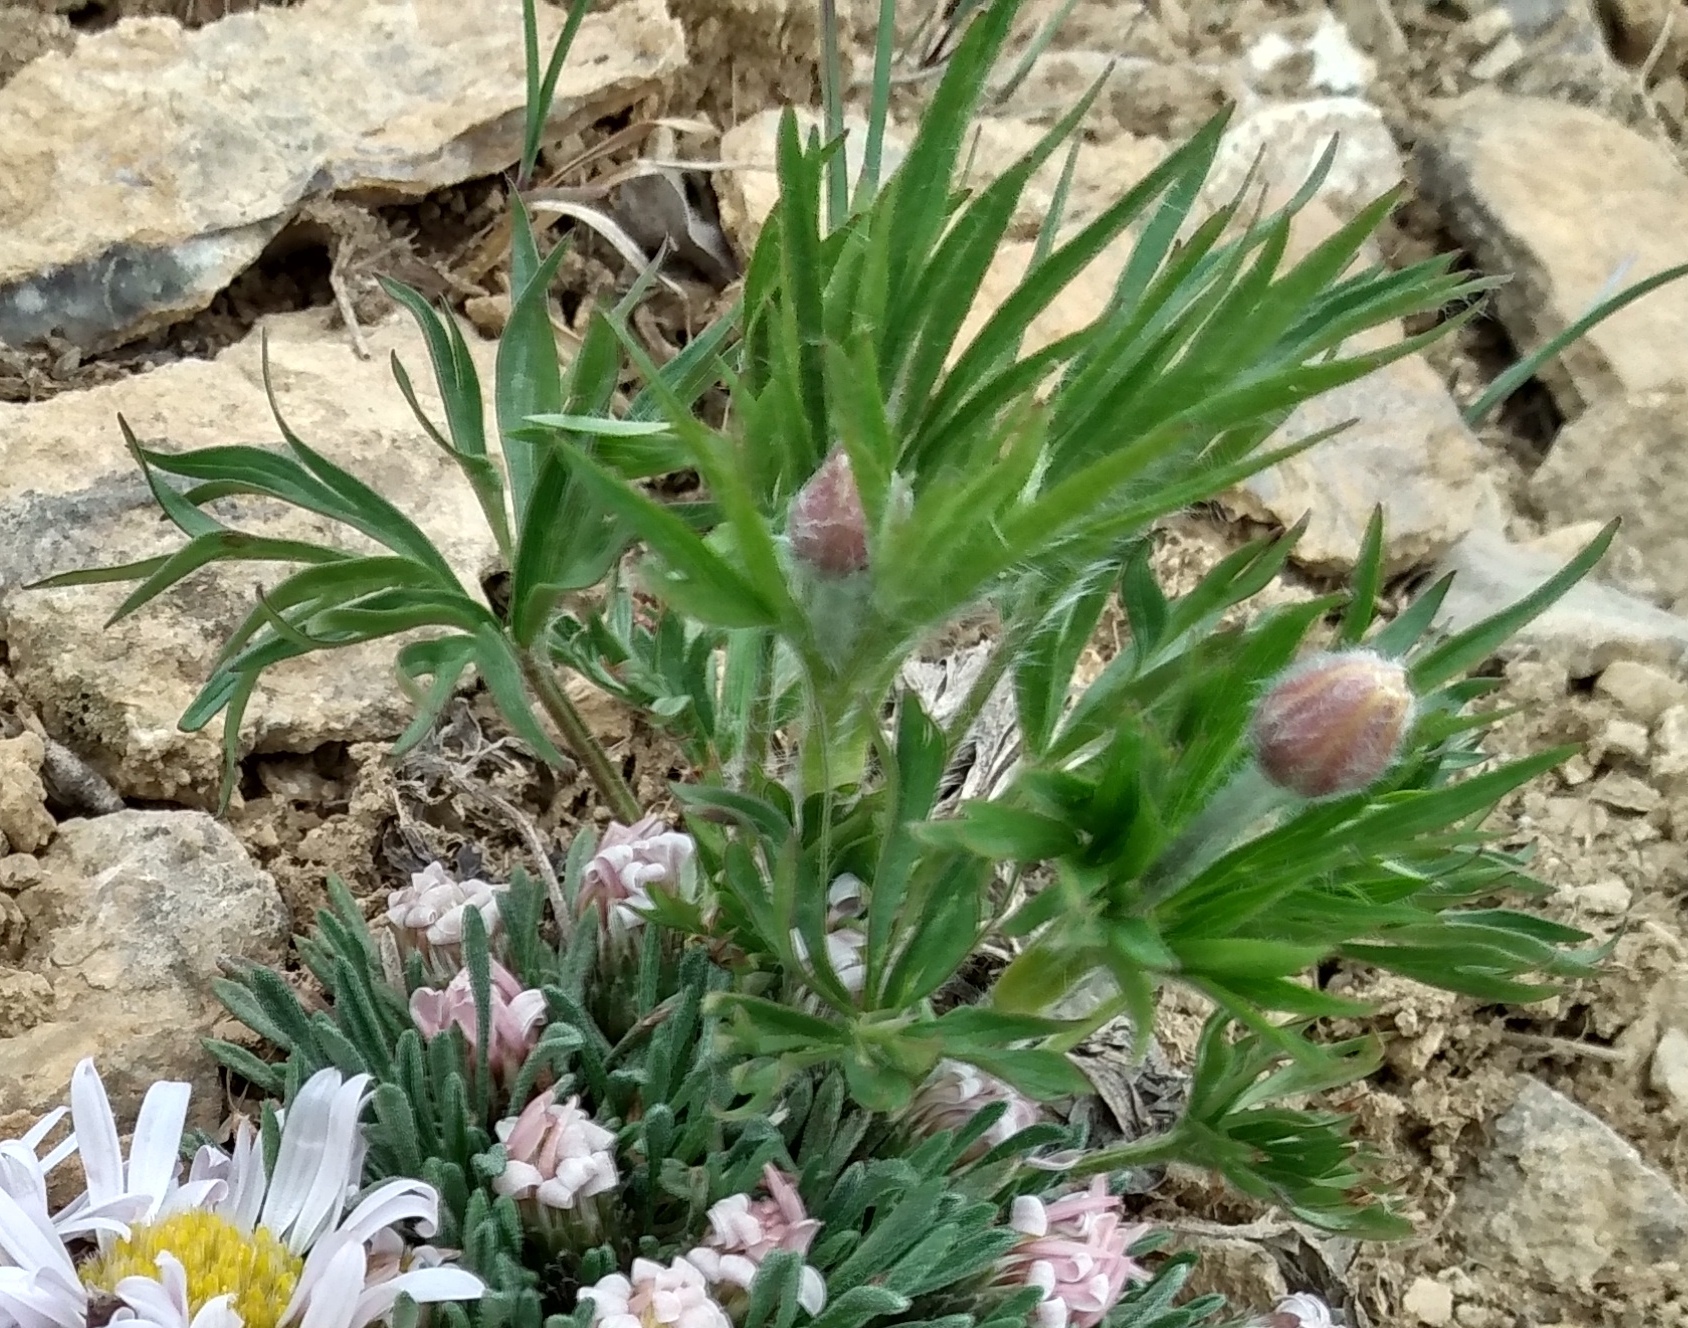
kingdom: Plantae
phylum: Tracheophyta
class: Magnoliopsida
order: Ranunculales
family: Ranunculaceae
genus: Anemone
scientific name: Anemone multifida
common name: Bird's-foot anemone
